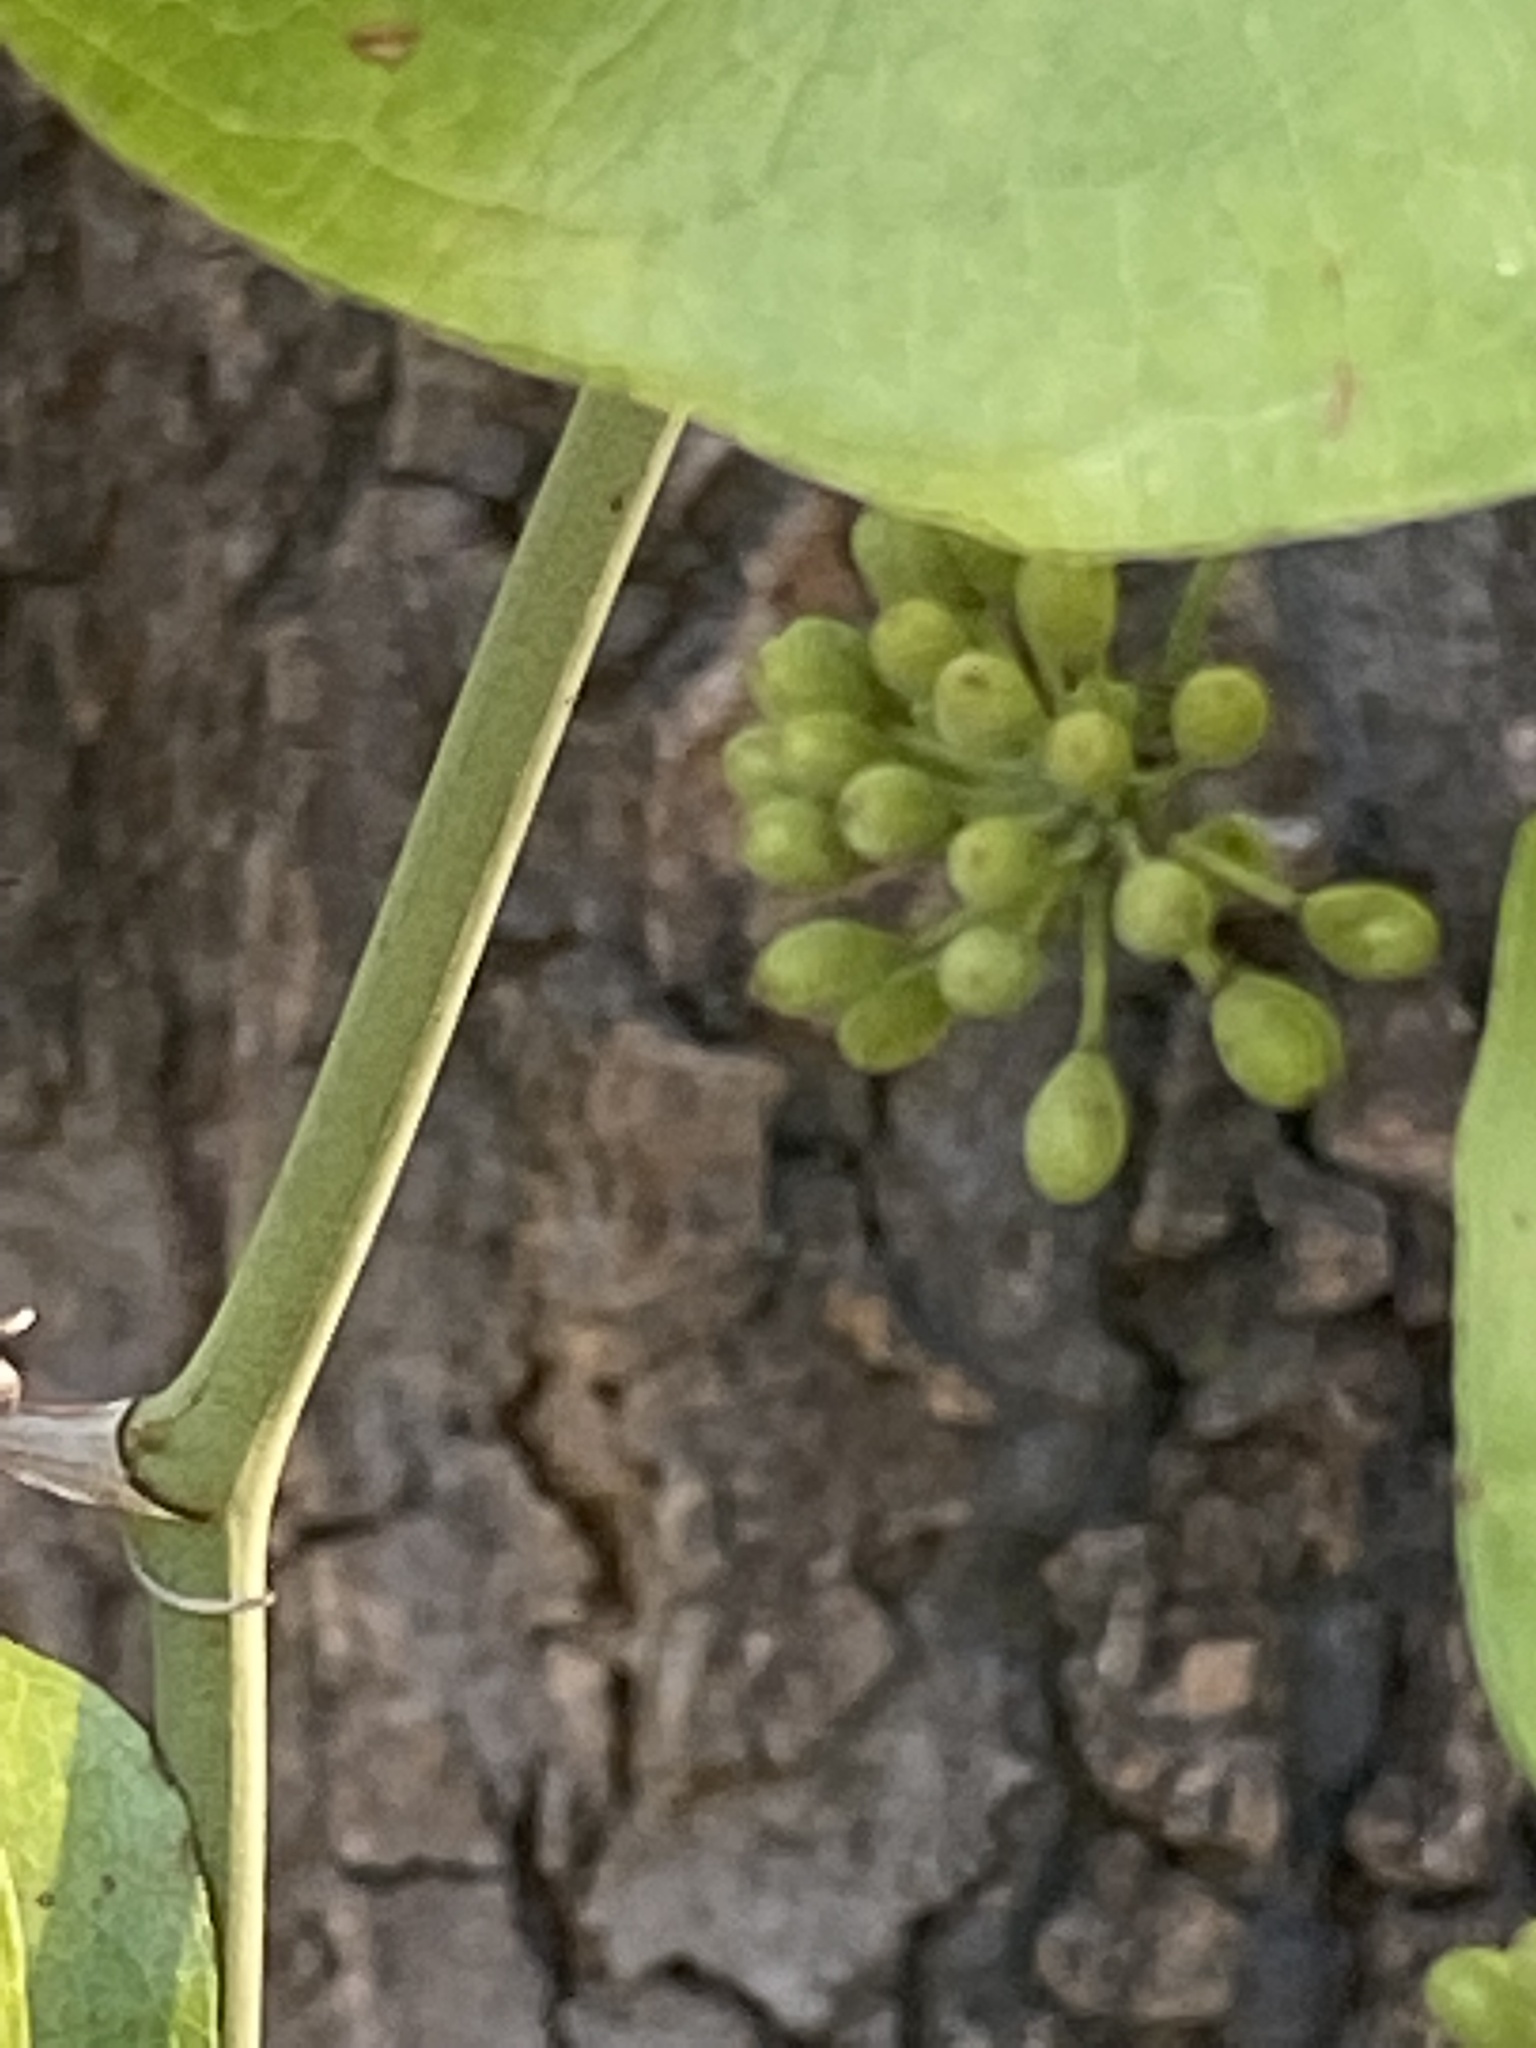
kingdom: Plantae
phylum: Tracheophyta
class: Liliopsida
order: Liliales
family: Smilacaceae
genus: Smilax
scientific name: Smilax bona-nox
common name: Catbrier
